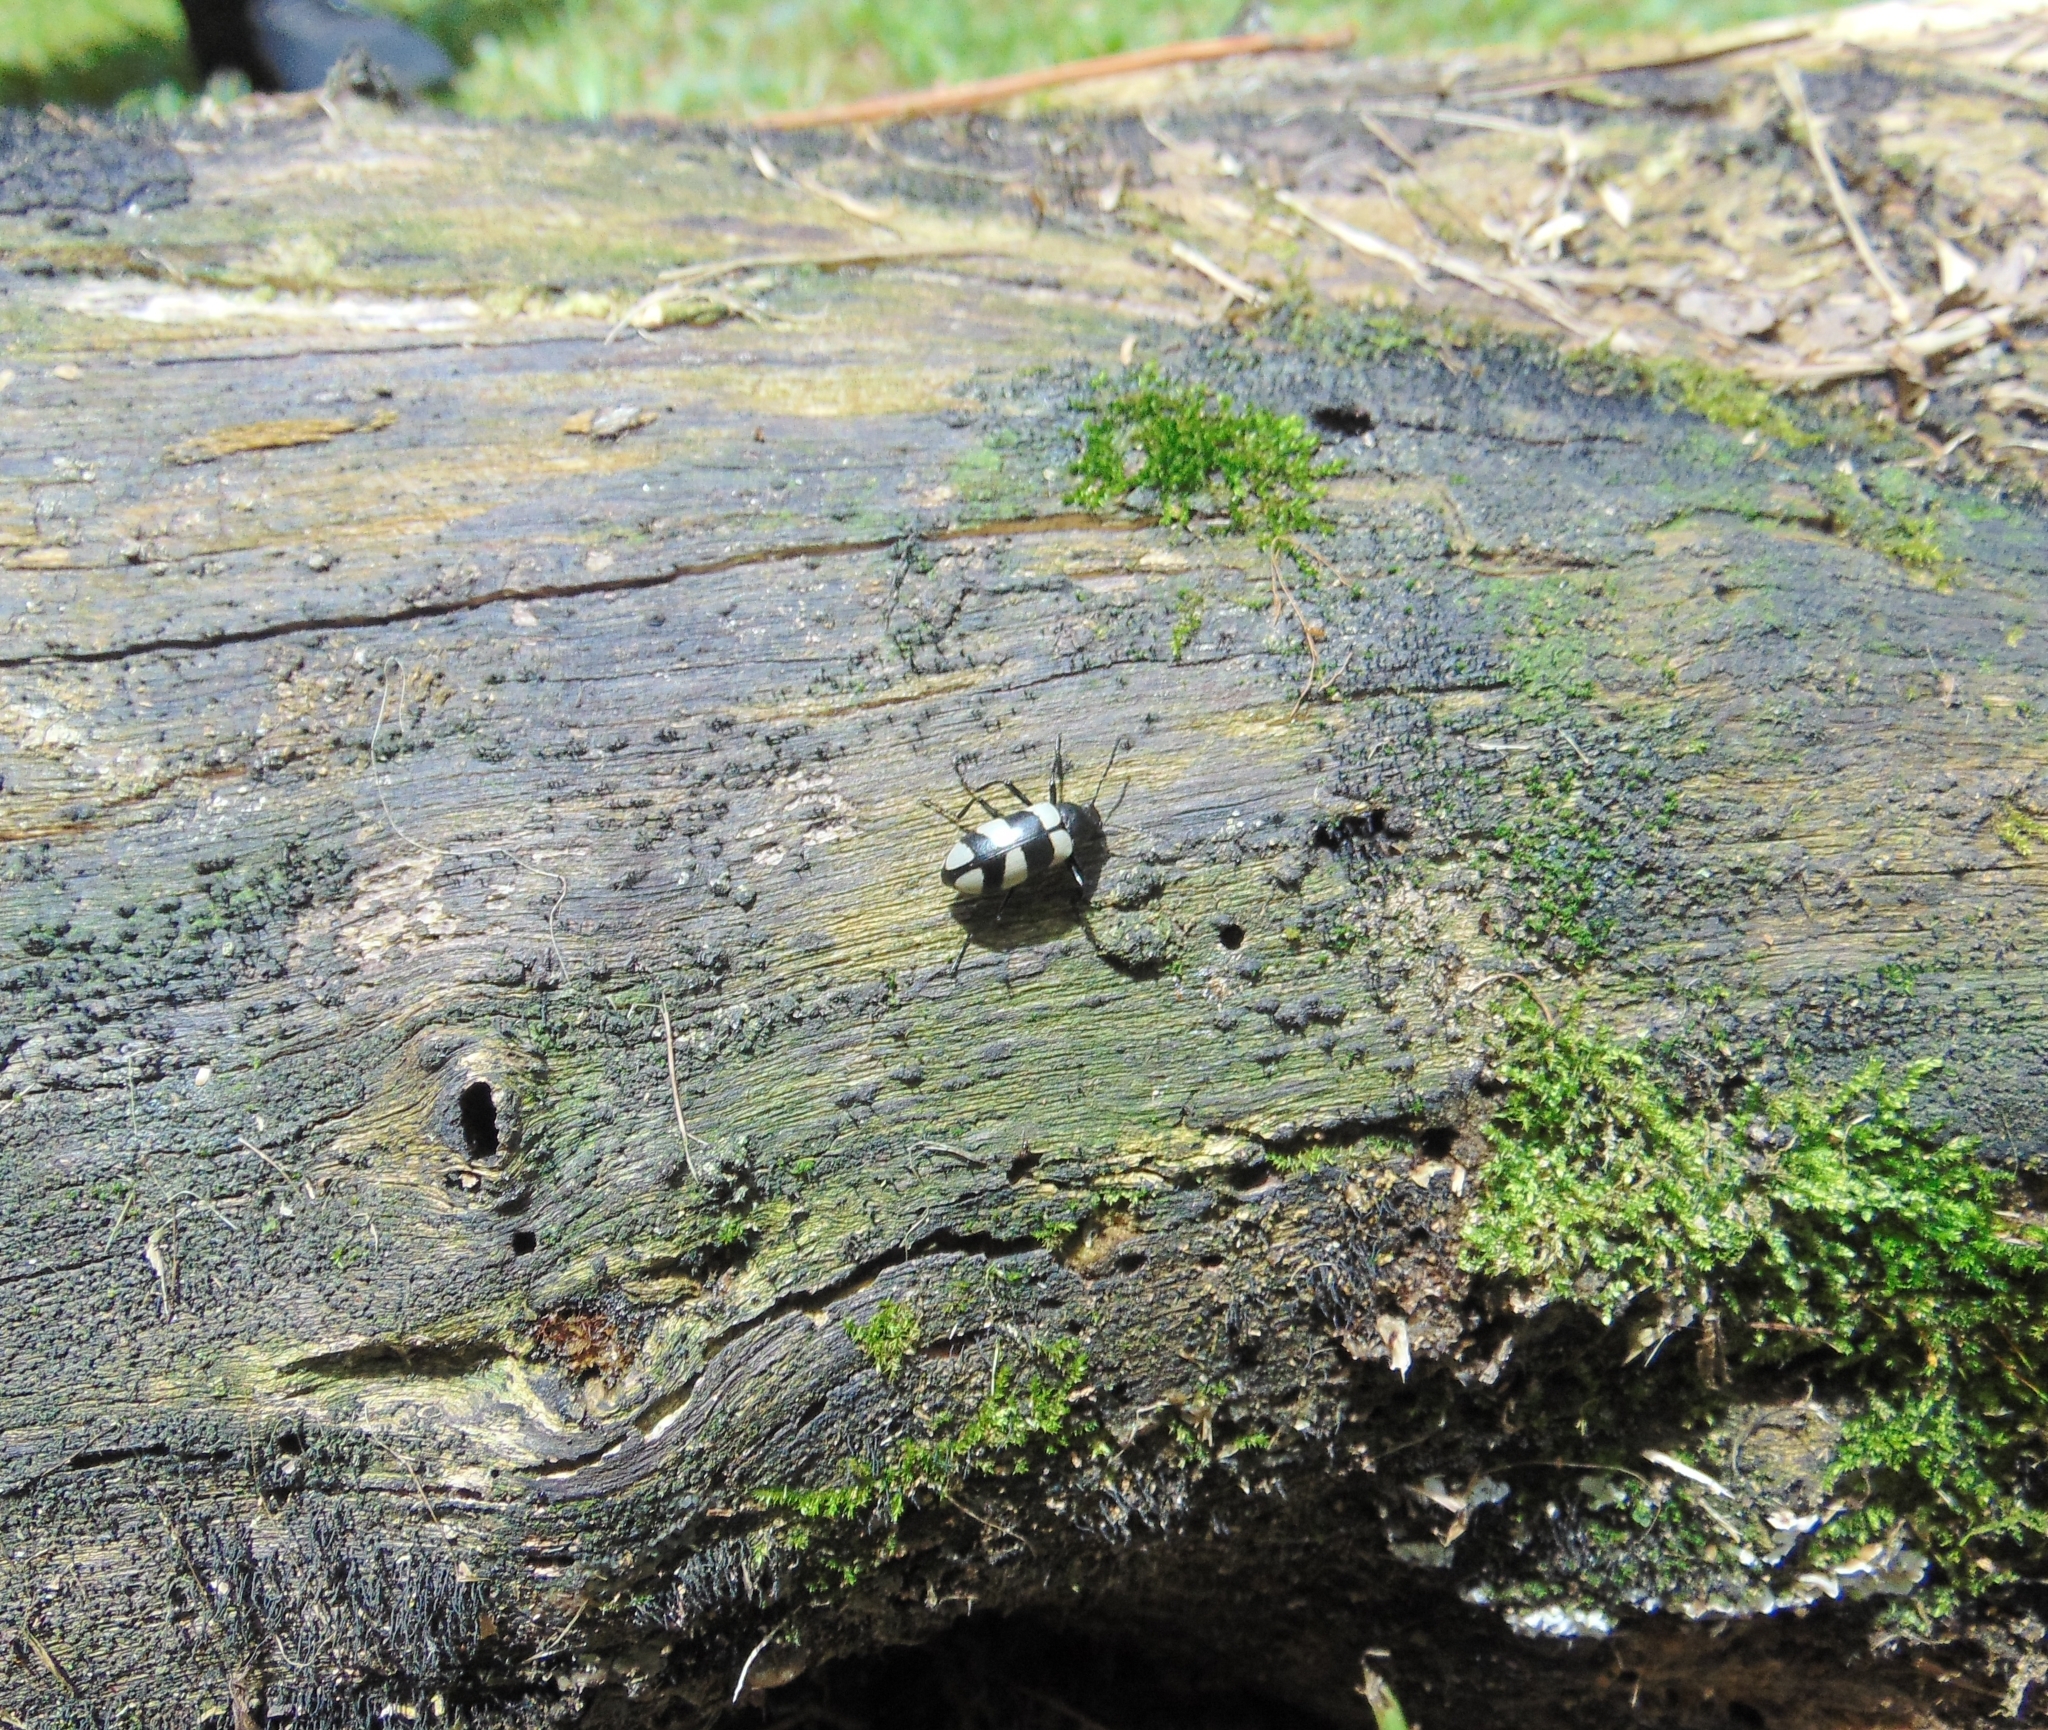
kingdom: Animalia
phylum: Arthropoda
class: Insecta
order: Coleoptera
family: Tenebrionidae
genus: Poecilesthus
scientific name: Poecilesthus
